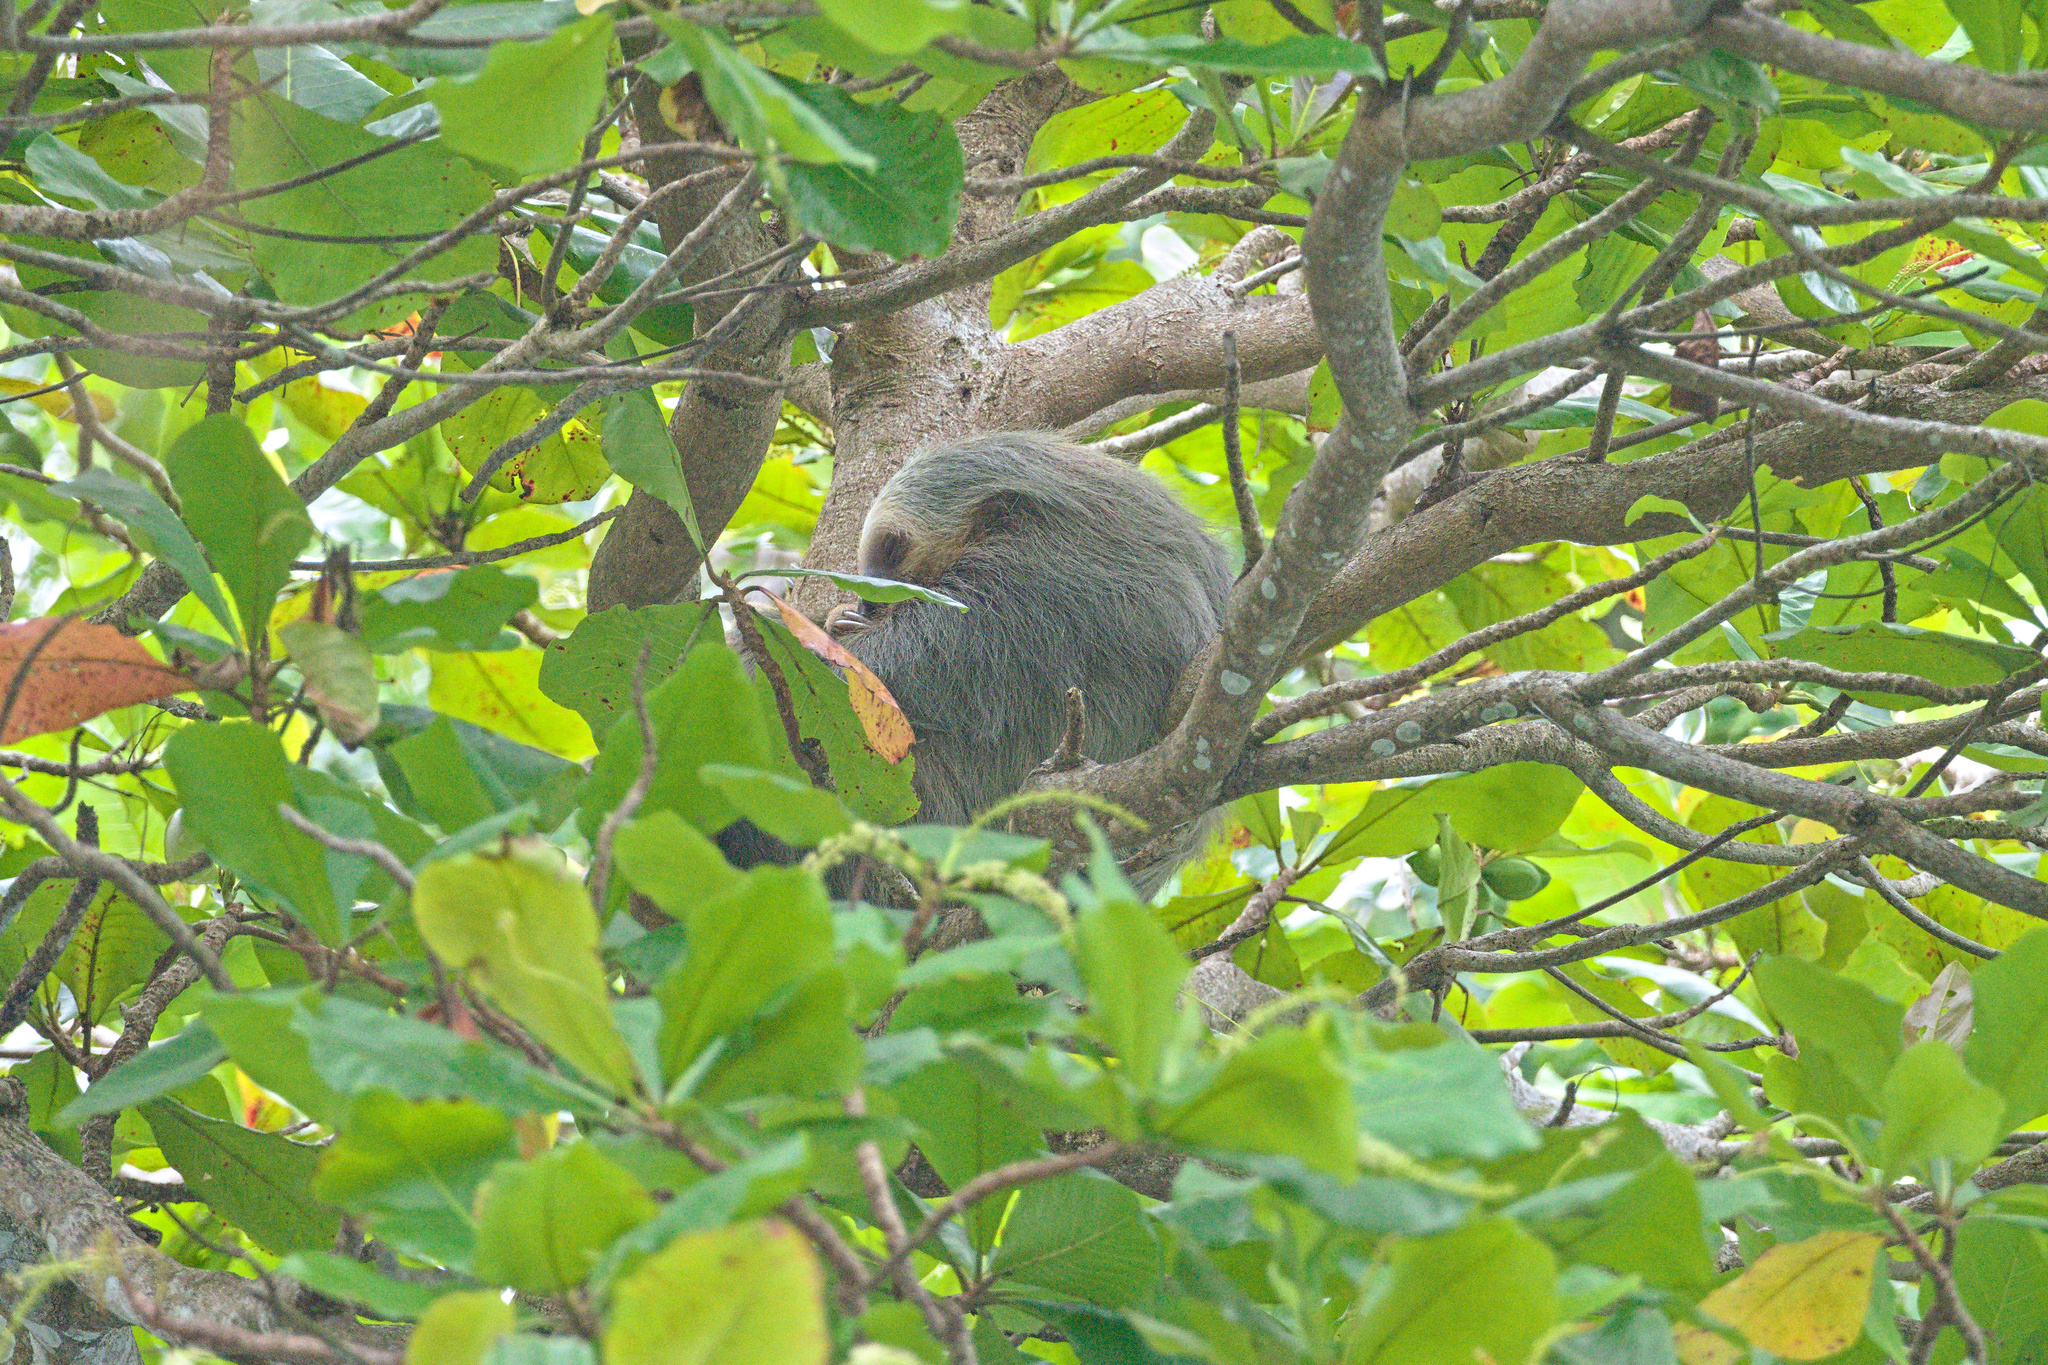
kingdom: Animalia
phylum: Chordata
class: Mammalia
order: Pilosa
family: Megalonychidae
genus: Choloepus
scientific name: Choloepus hoffmanni
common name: Hoffmann's two-toed sloth
